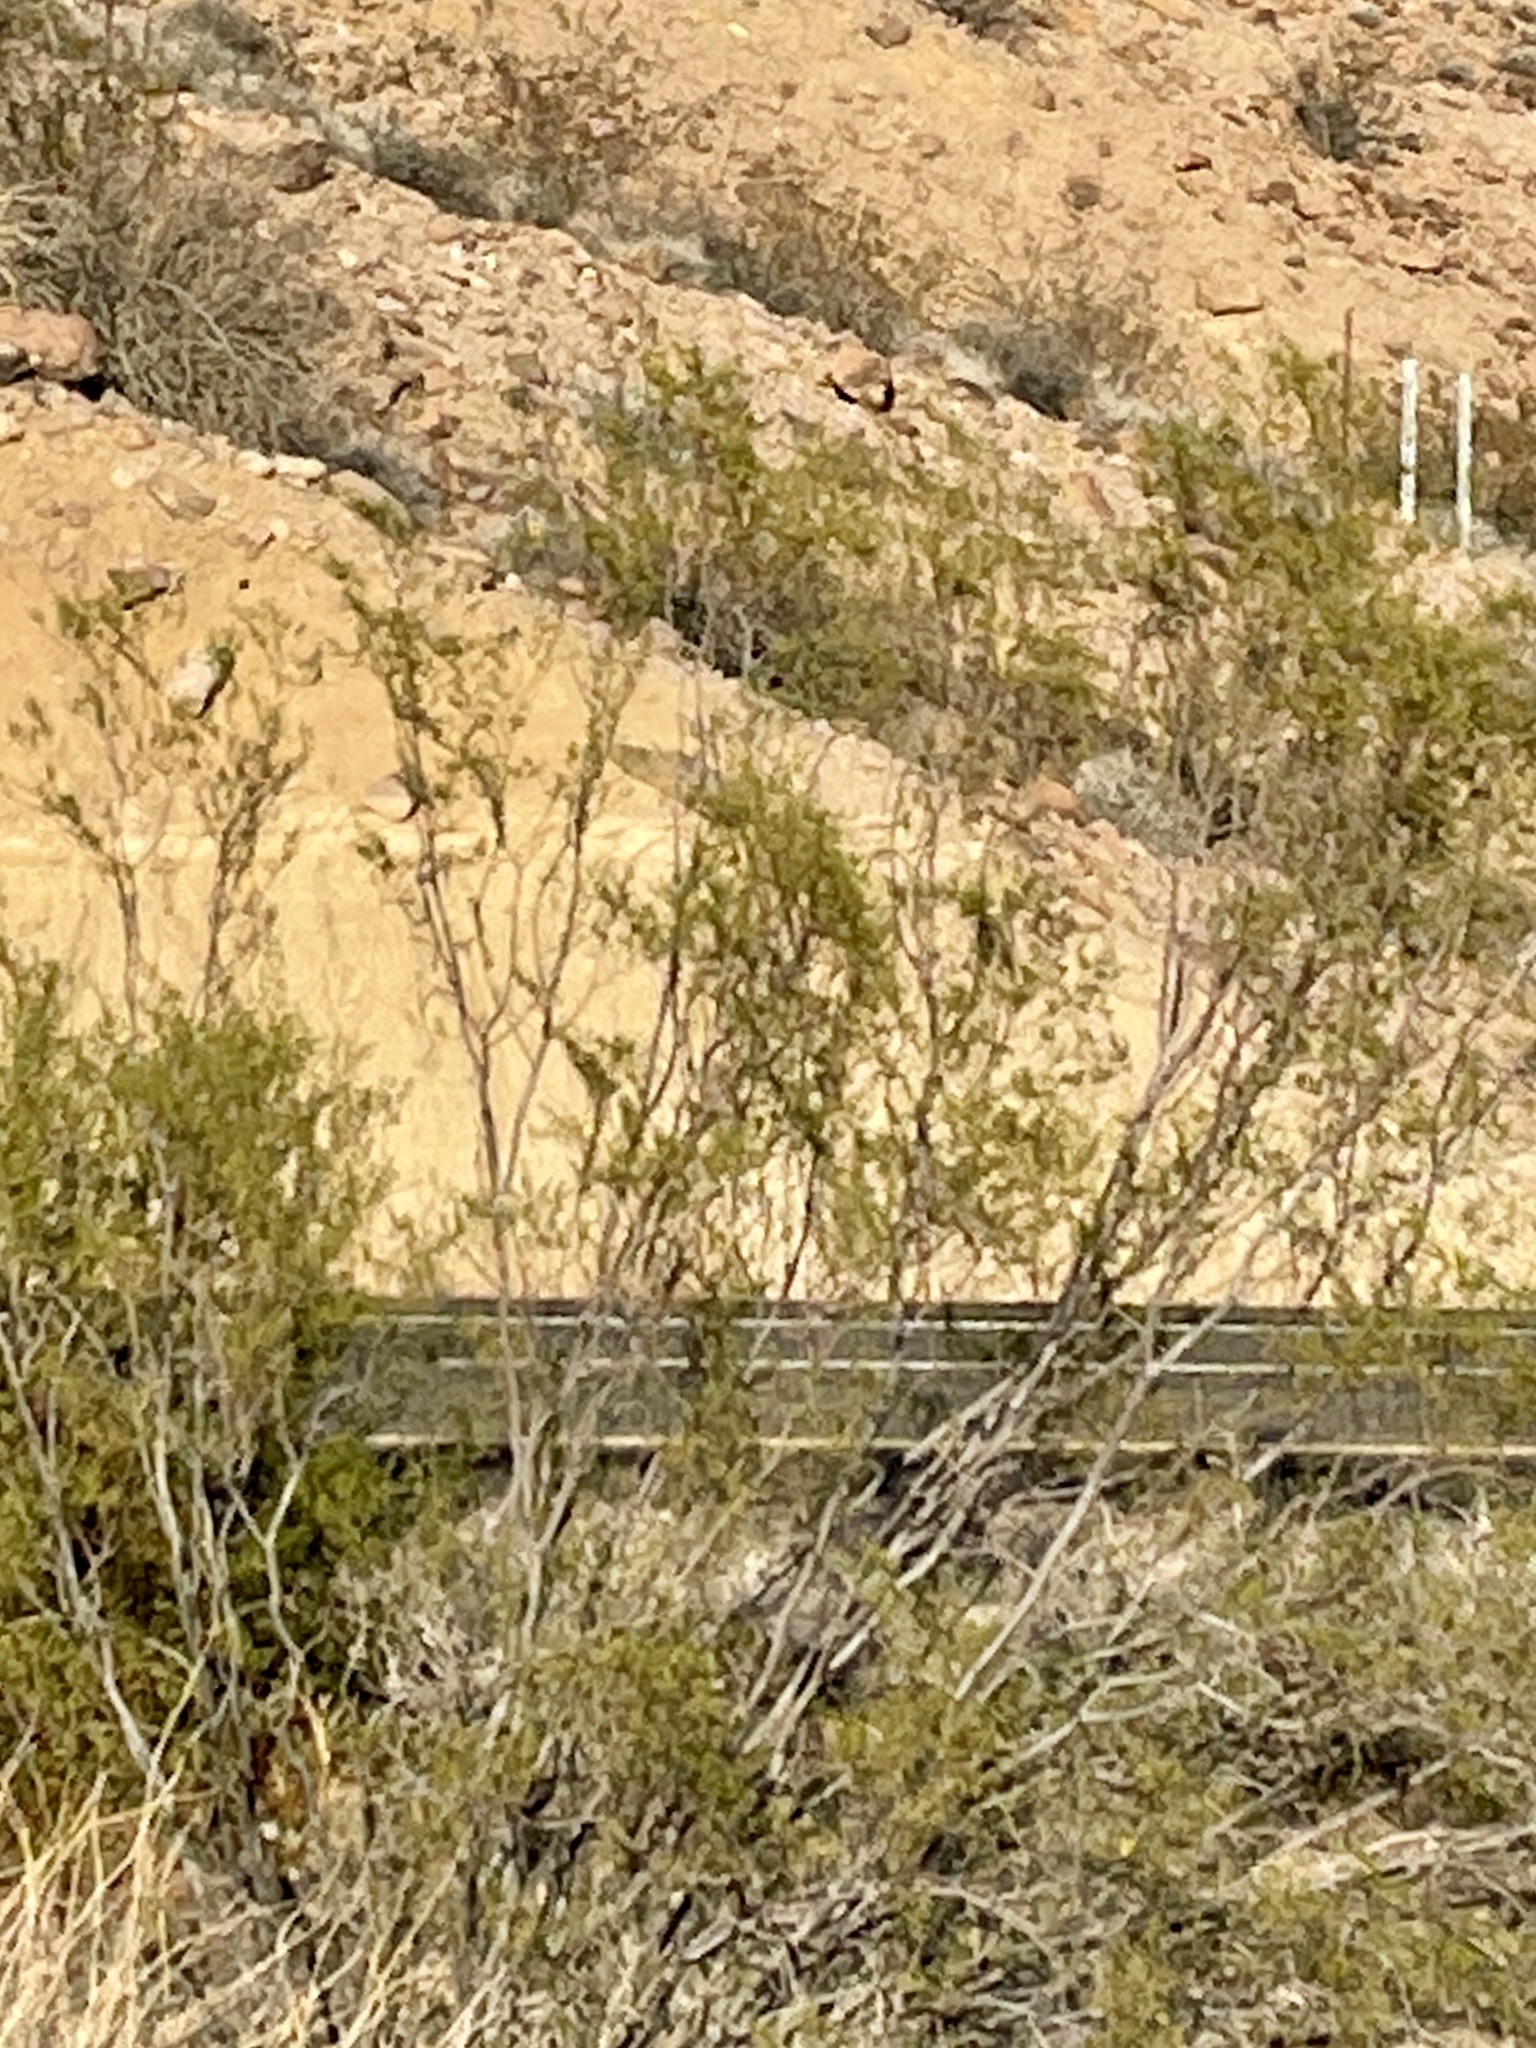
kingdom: Plantae
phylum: Tracheophyta
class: Magnoliopsida
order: Zygophyllales
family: Zygophyllaceae
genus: Larrea
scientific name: Larrea tridentata
